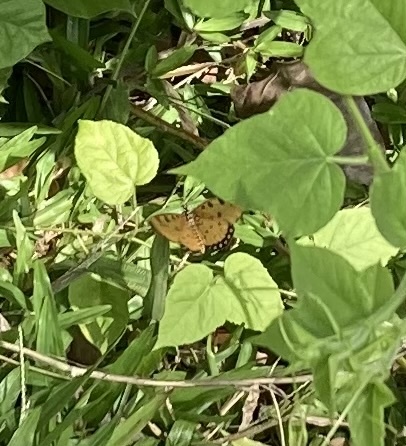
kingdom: Animalia
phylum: Arthropoda
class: Insecta
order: Lepidoptera
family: Nymphalidae
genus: Acraea
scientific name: Acraea terpsicore
